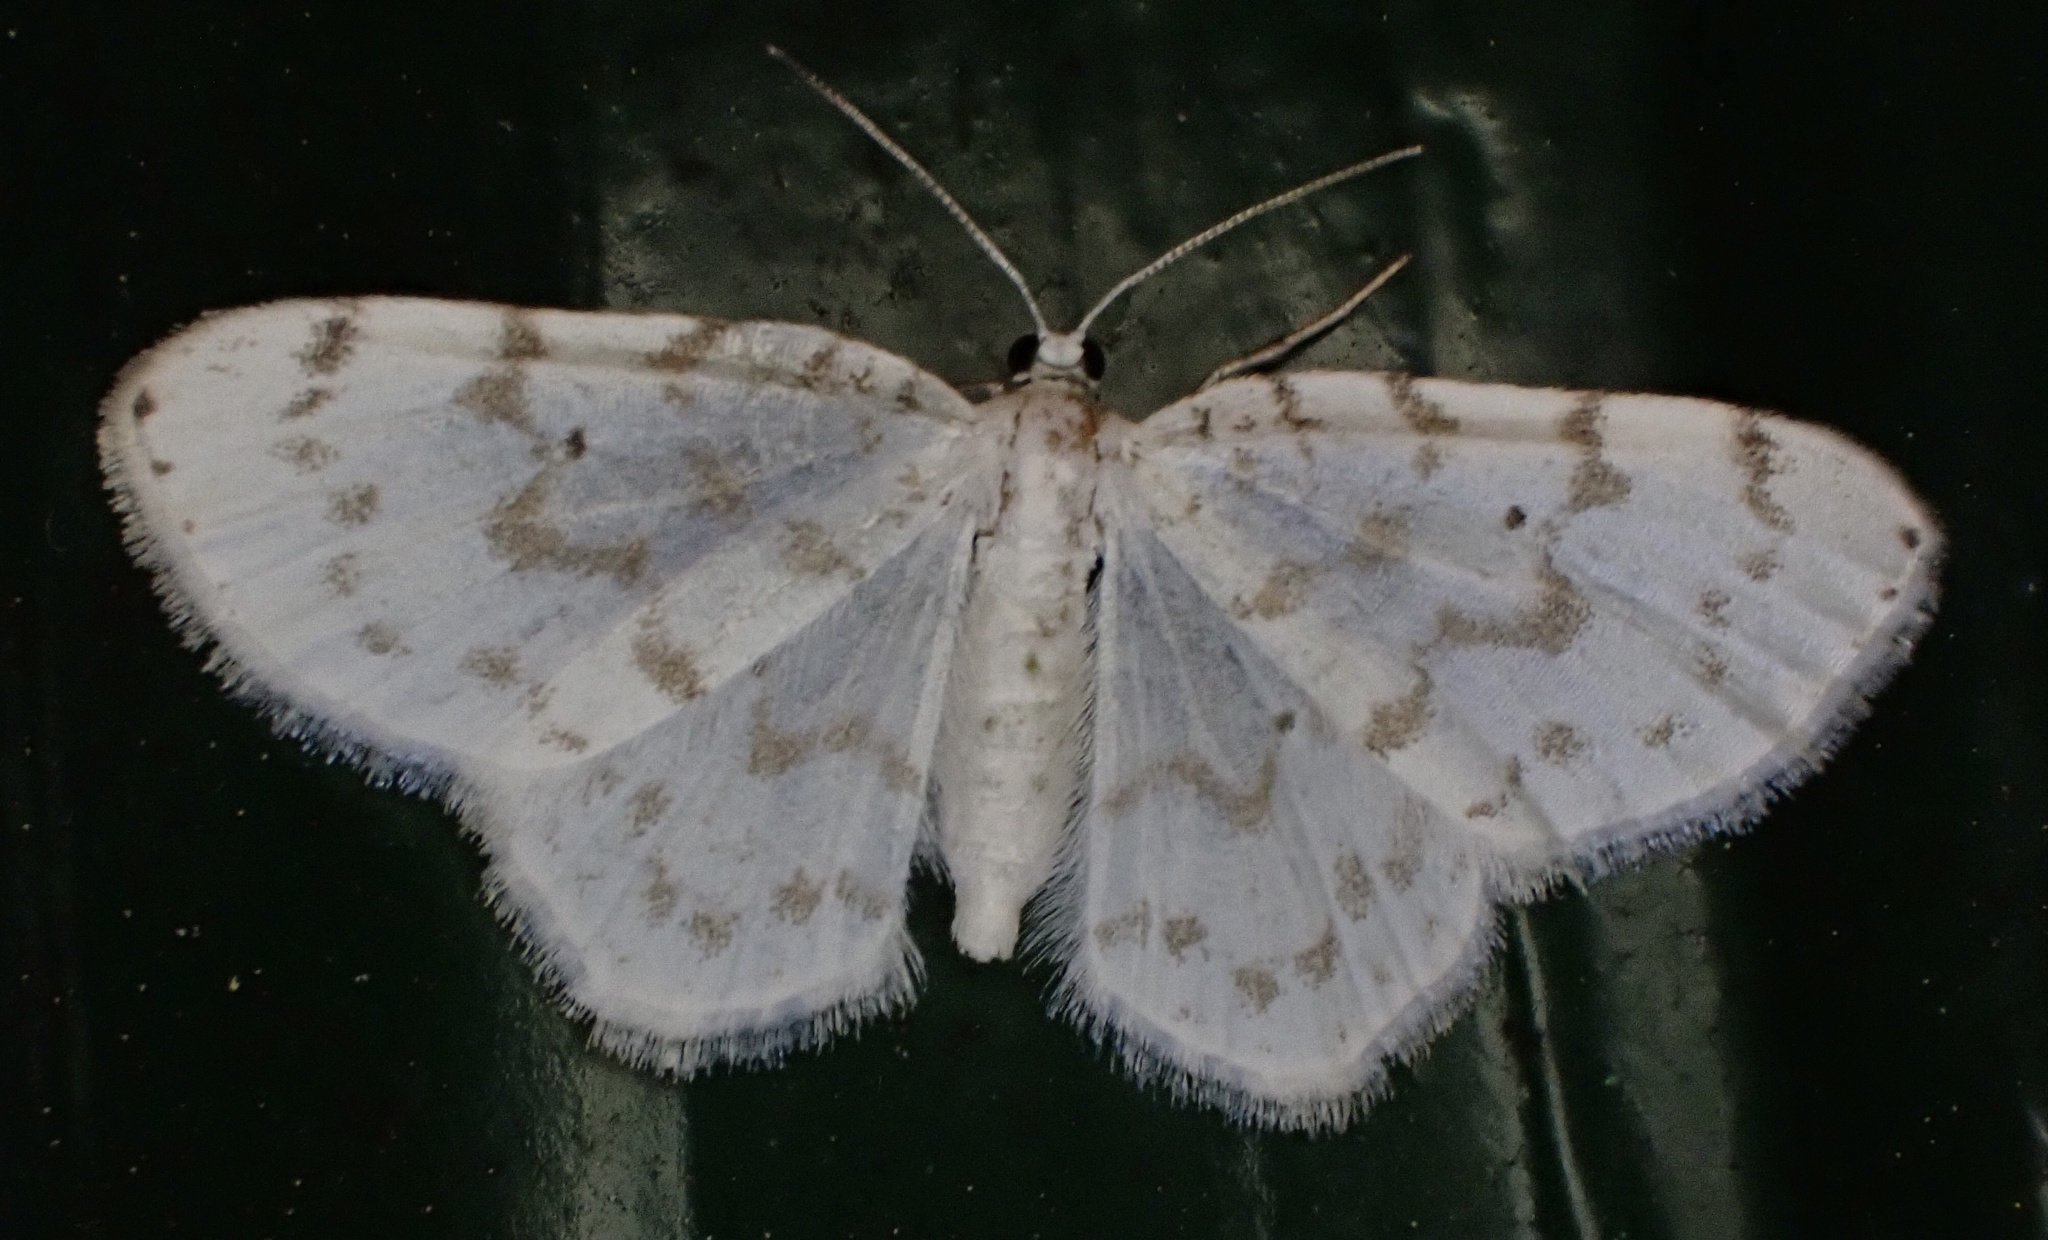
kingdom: Animalia
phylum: Arthropoda
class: Insecta
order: Lepidoptera
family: Geometridae
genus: Hydrelia
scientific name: Hydrelia albifera
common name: Fragile white carpet
